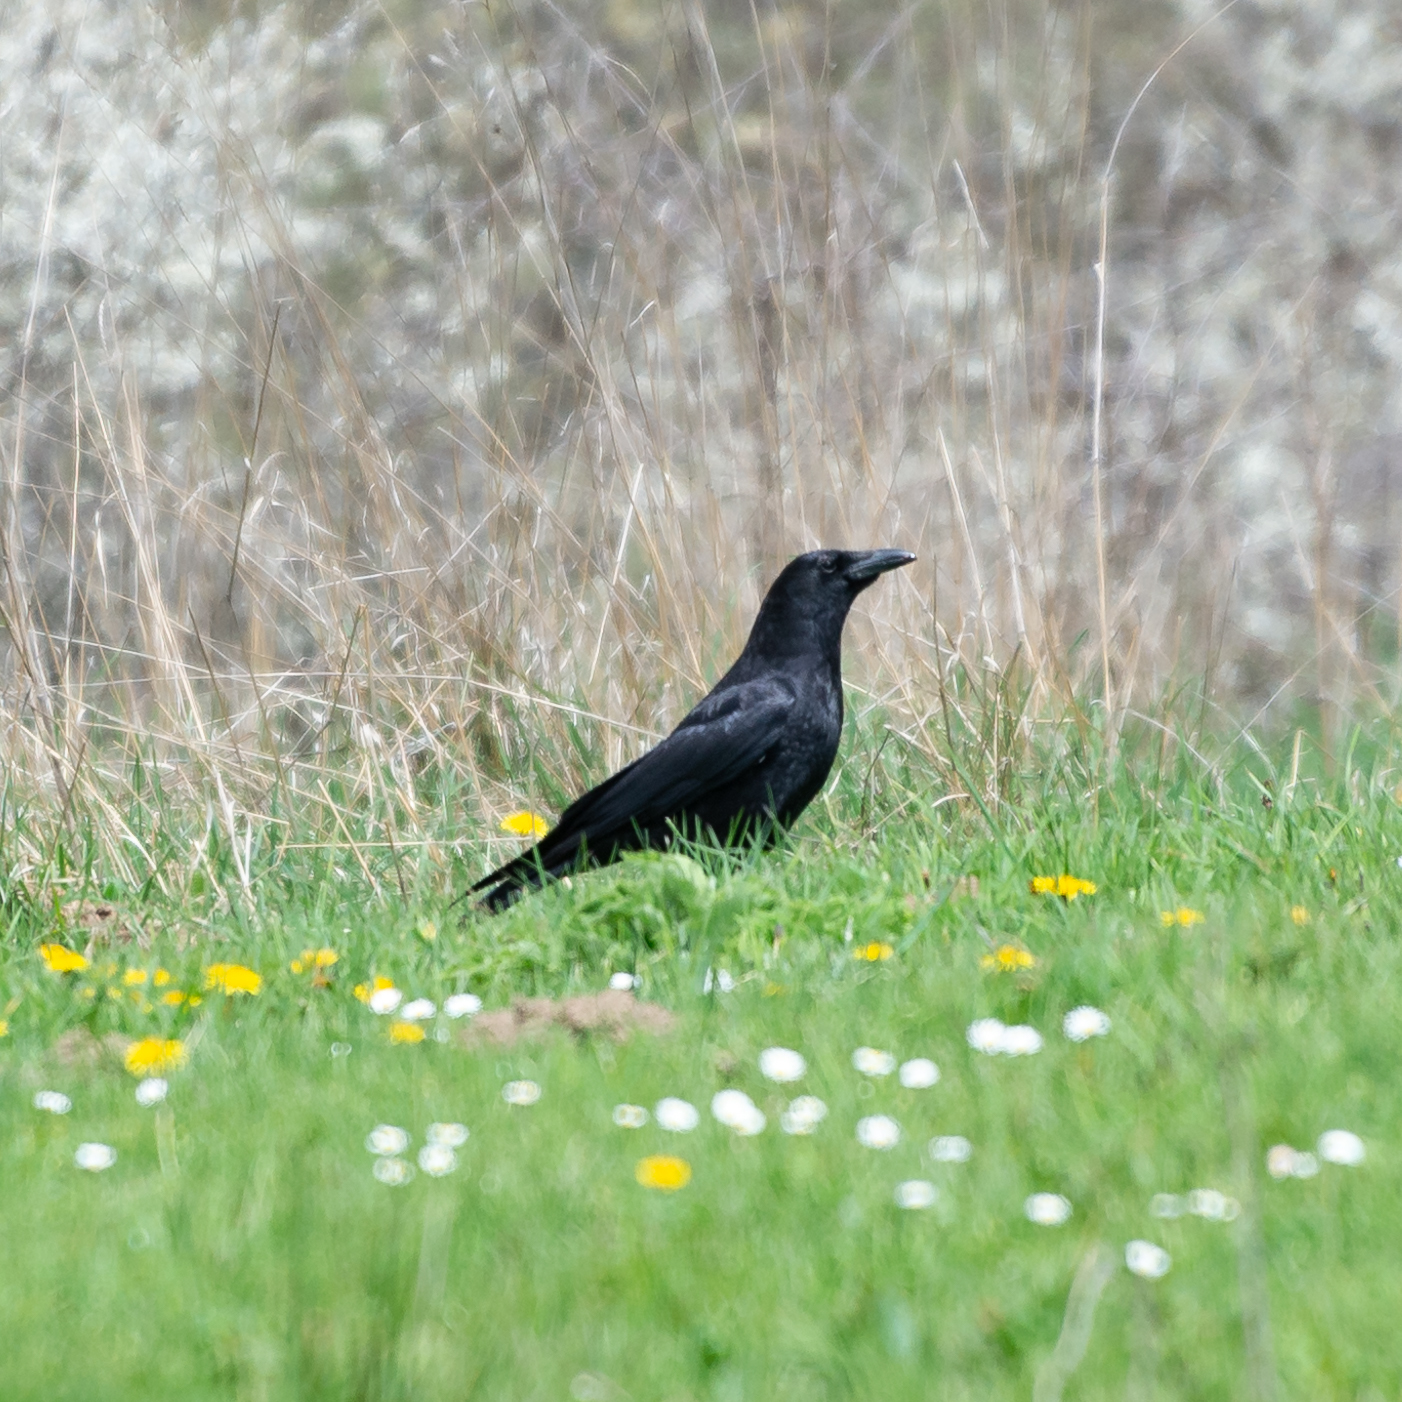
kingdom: Animalia
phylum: Chordata
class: Aves
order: Passeriformes
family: Corvidae
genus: Corvus
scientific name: Corvus corone
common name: Carrion crow
